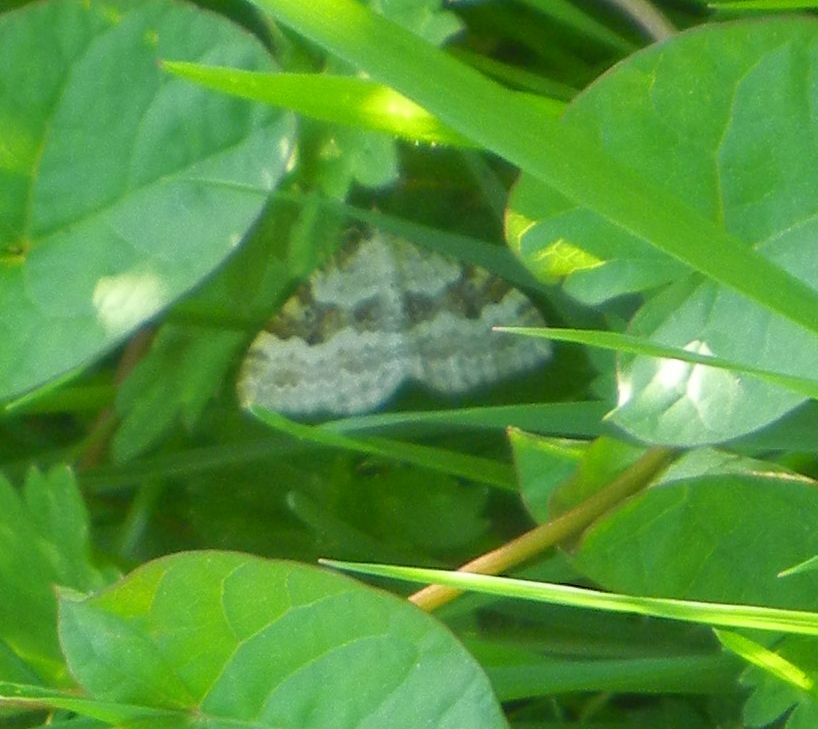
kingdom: Animalia
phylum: Arthropoda
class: Insecta
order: Lepidoptera
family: Geometridae
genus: Xanthorhoe
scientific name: Xanthorhoe montanata
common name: Silver-ground carpet
